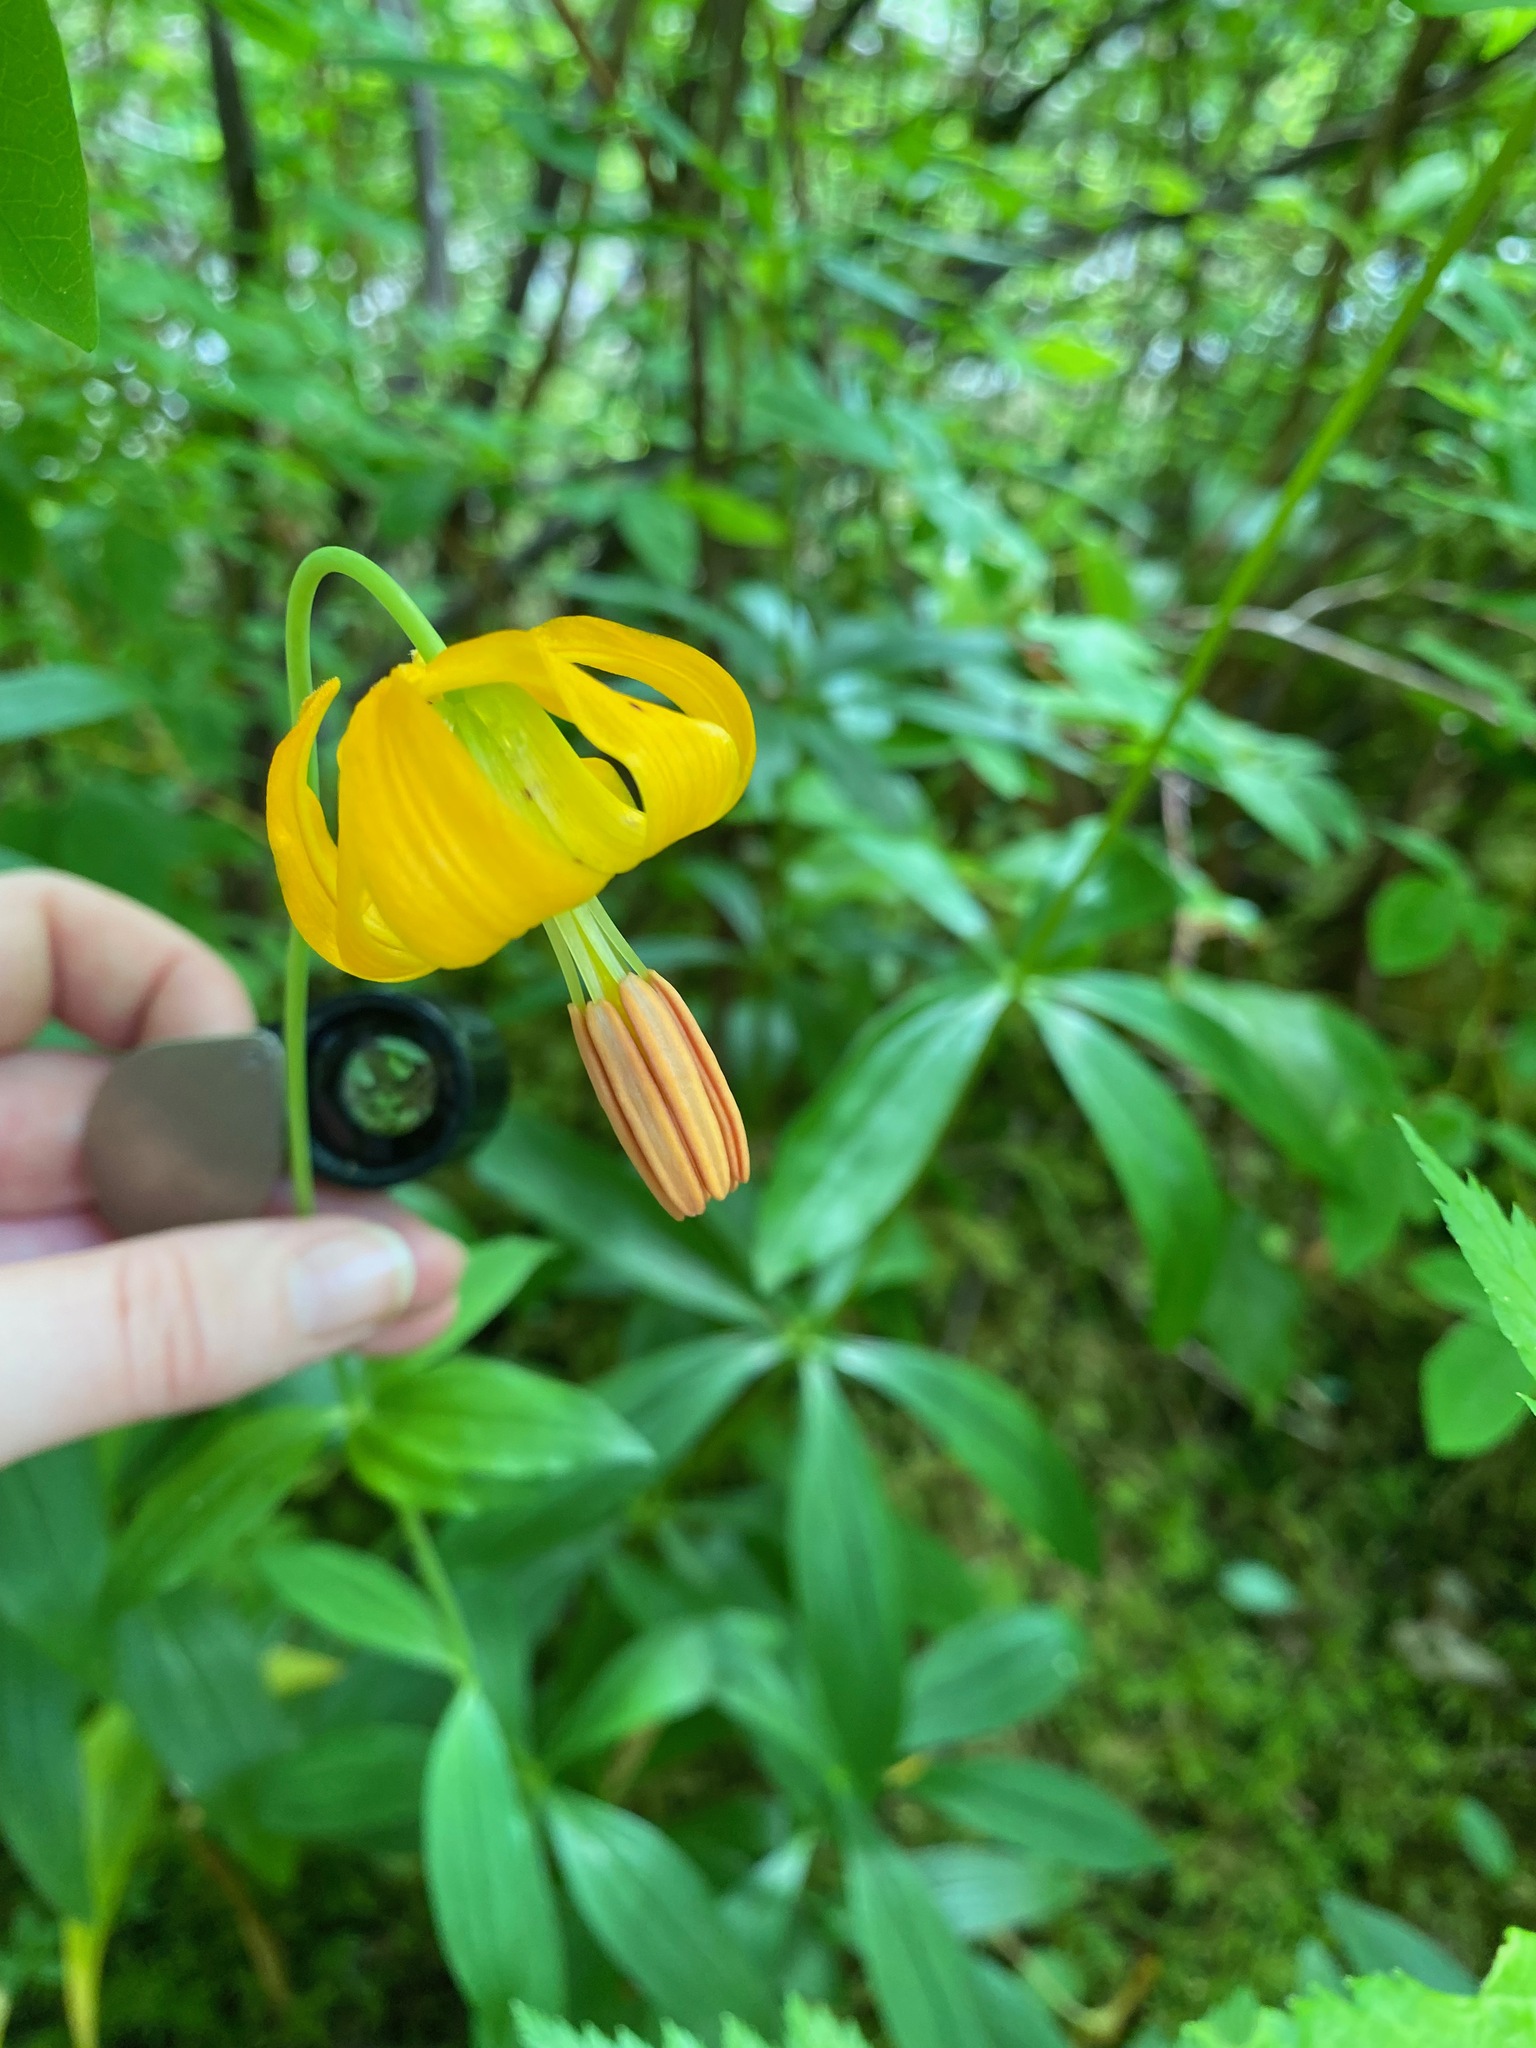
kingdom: Plantae
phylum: Tracheophyta
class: Liliopsida
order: Liliales
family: Liliaceae
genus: Lilium
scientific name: Lilium columbianum
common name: Columbia lily
